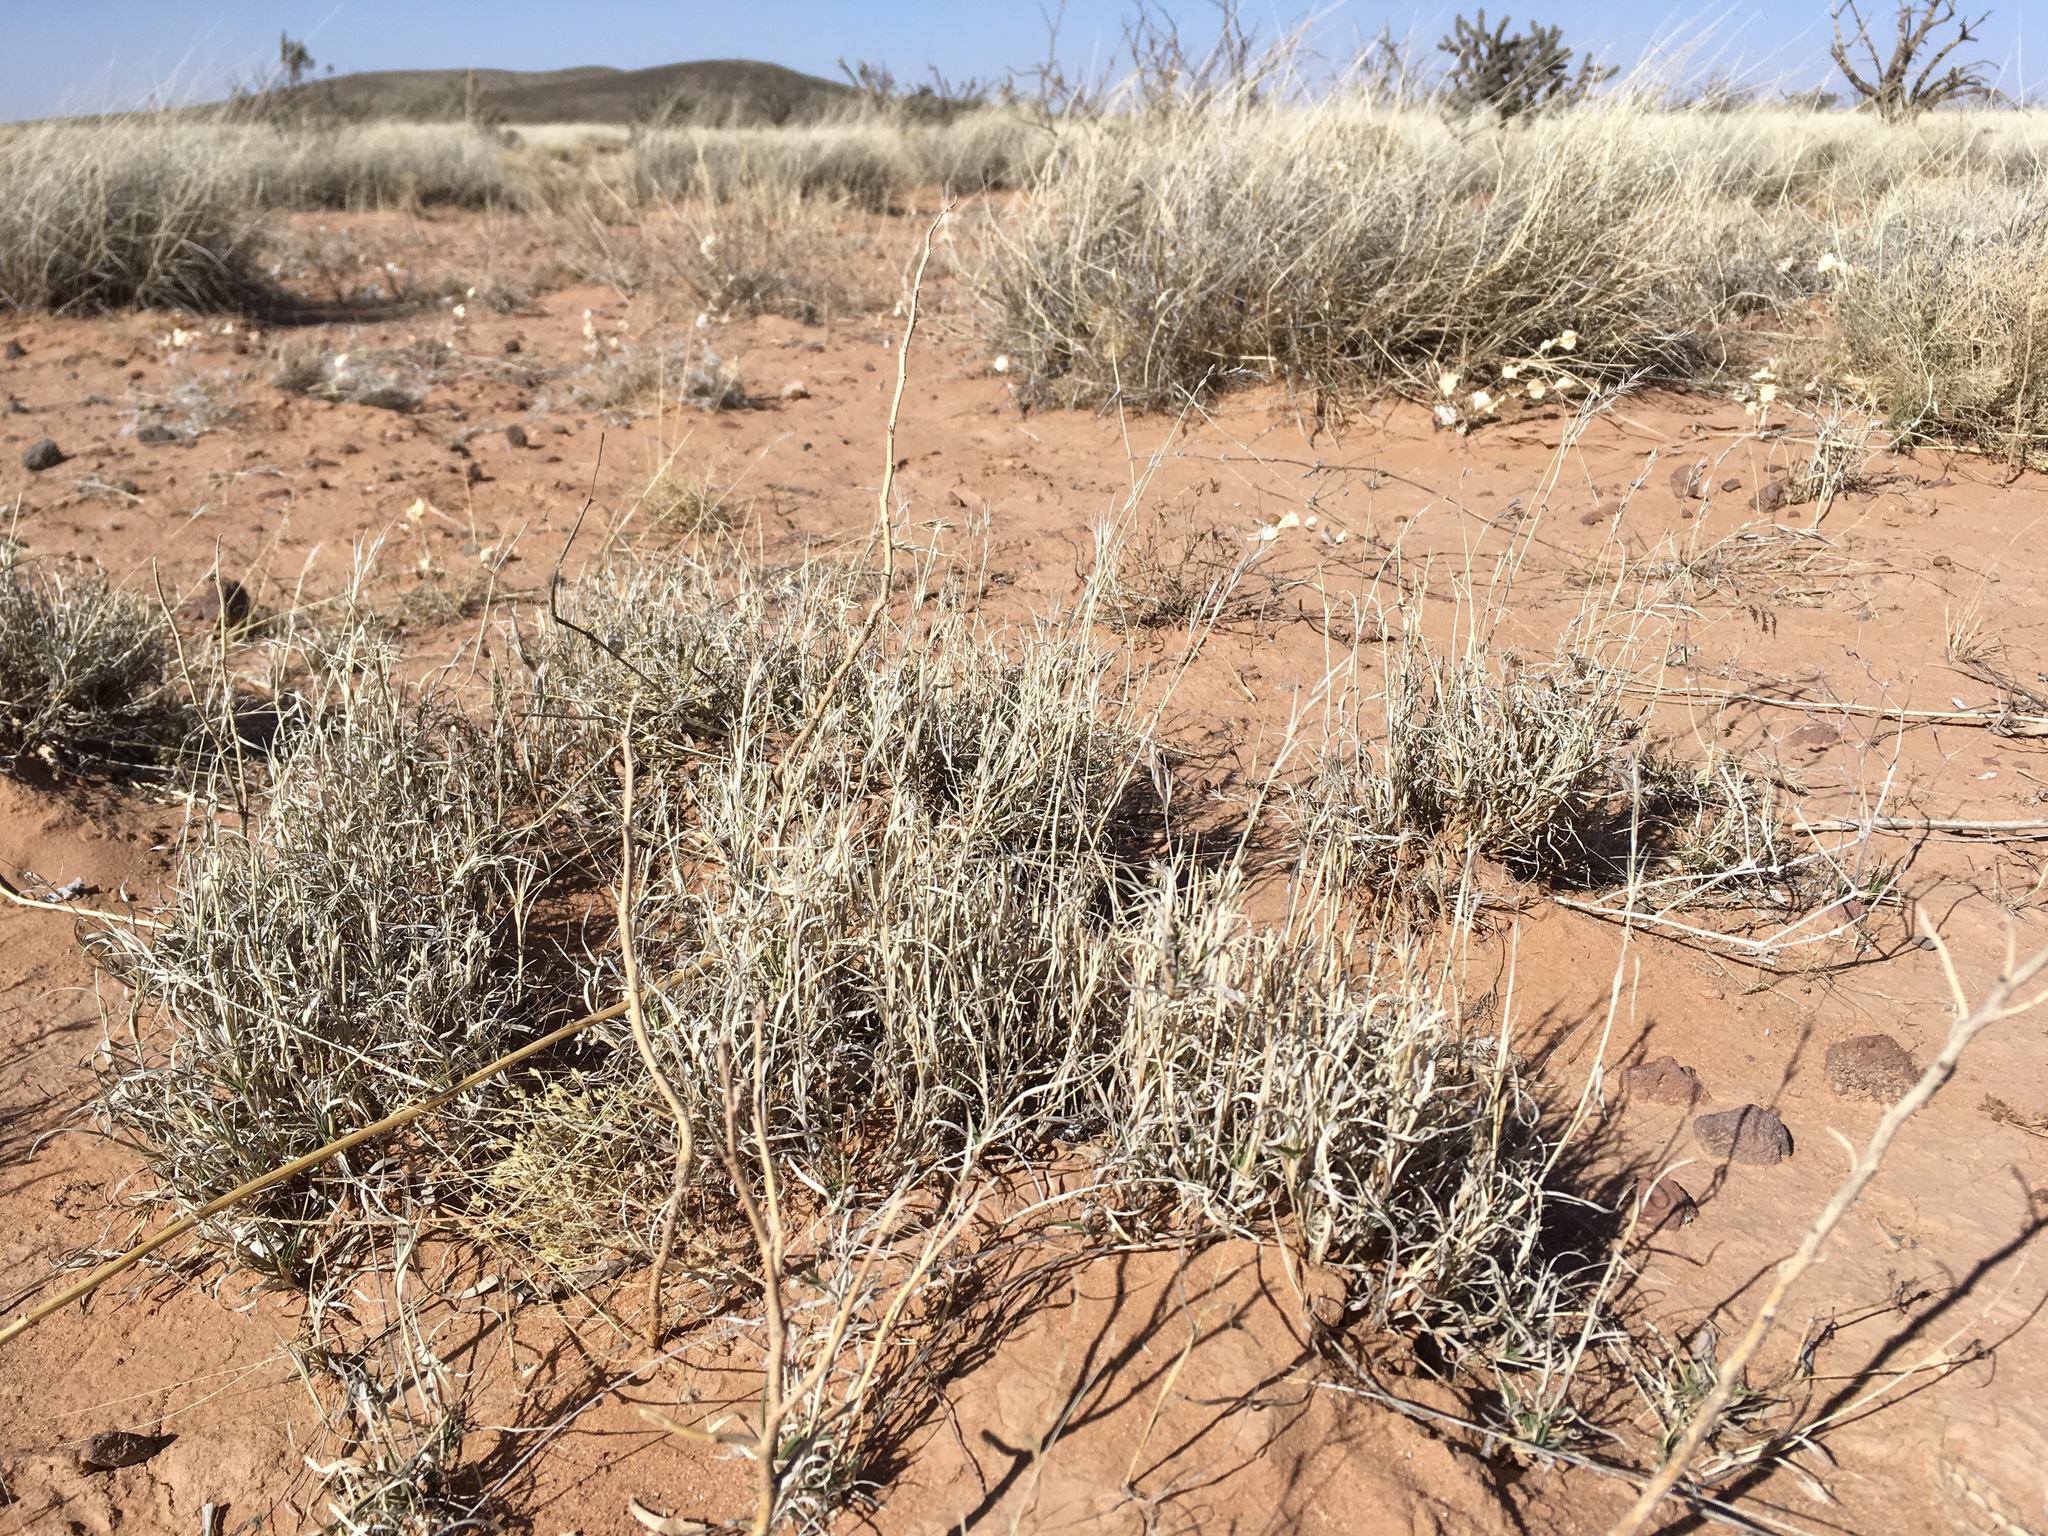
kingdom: Plantae
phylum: Tracheophyta
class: Liliopsida
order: Poales
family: Poaceae
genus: Scleropogon
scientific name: Scleropogon brevifolius
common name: Burro grass
